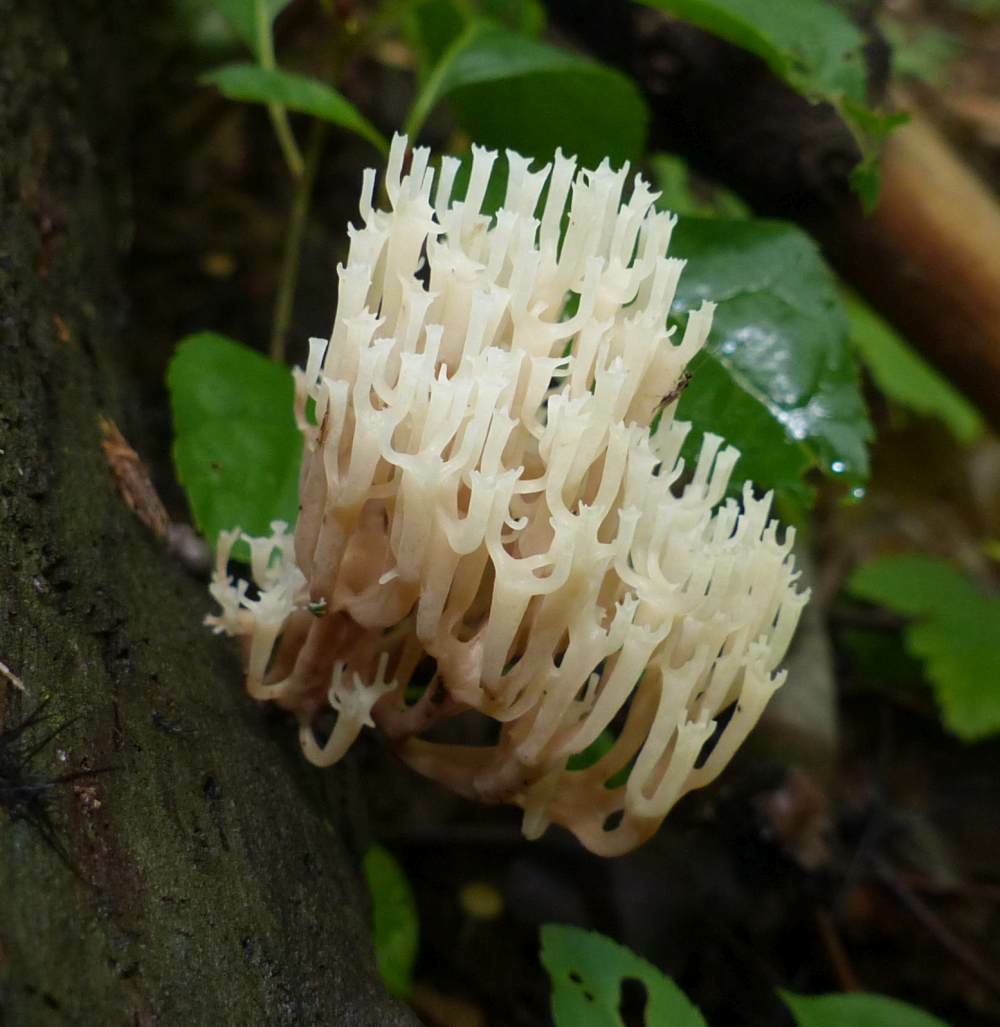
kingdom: Fungi
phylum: Basidiomycota
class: Agaricomycetes
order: Russulales
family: Auriscalpiaceae
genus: Artomyces
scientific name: Artomyces pyxidatus
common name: Crown-tipped coral fungus
